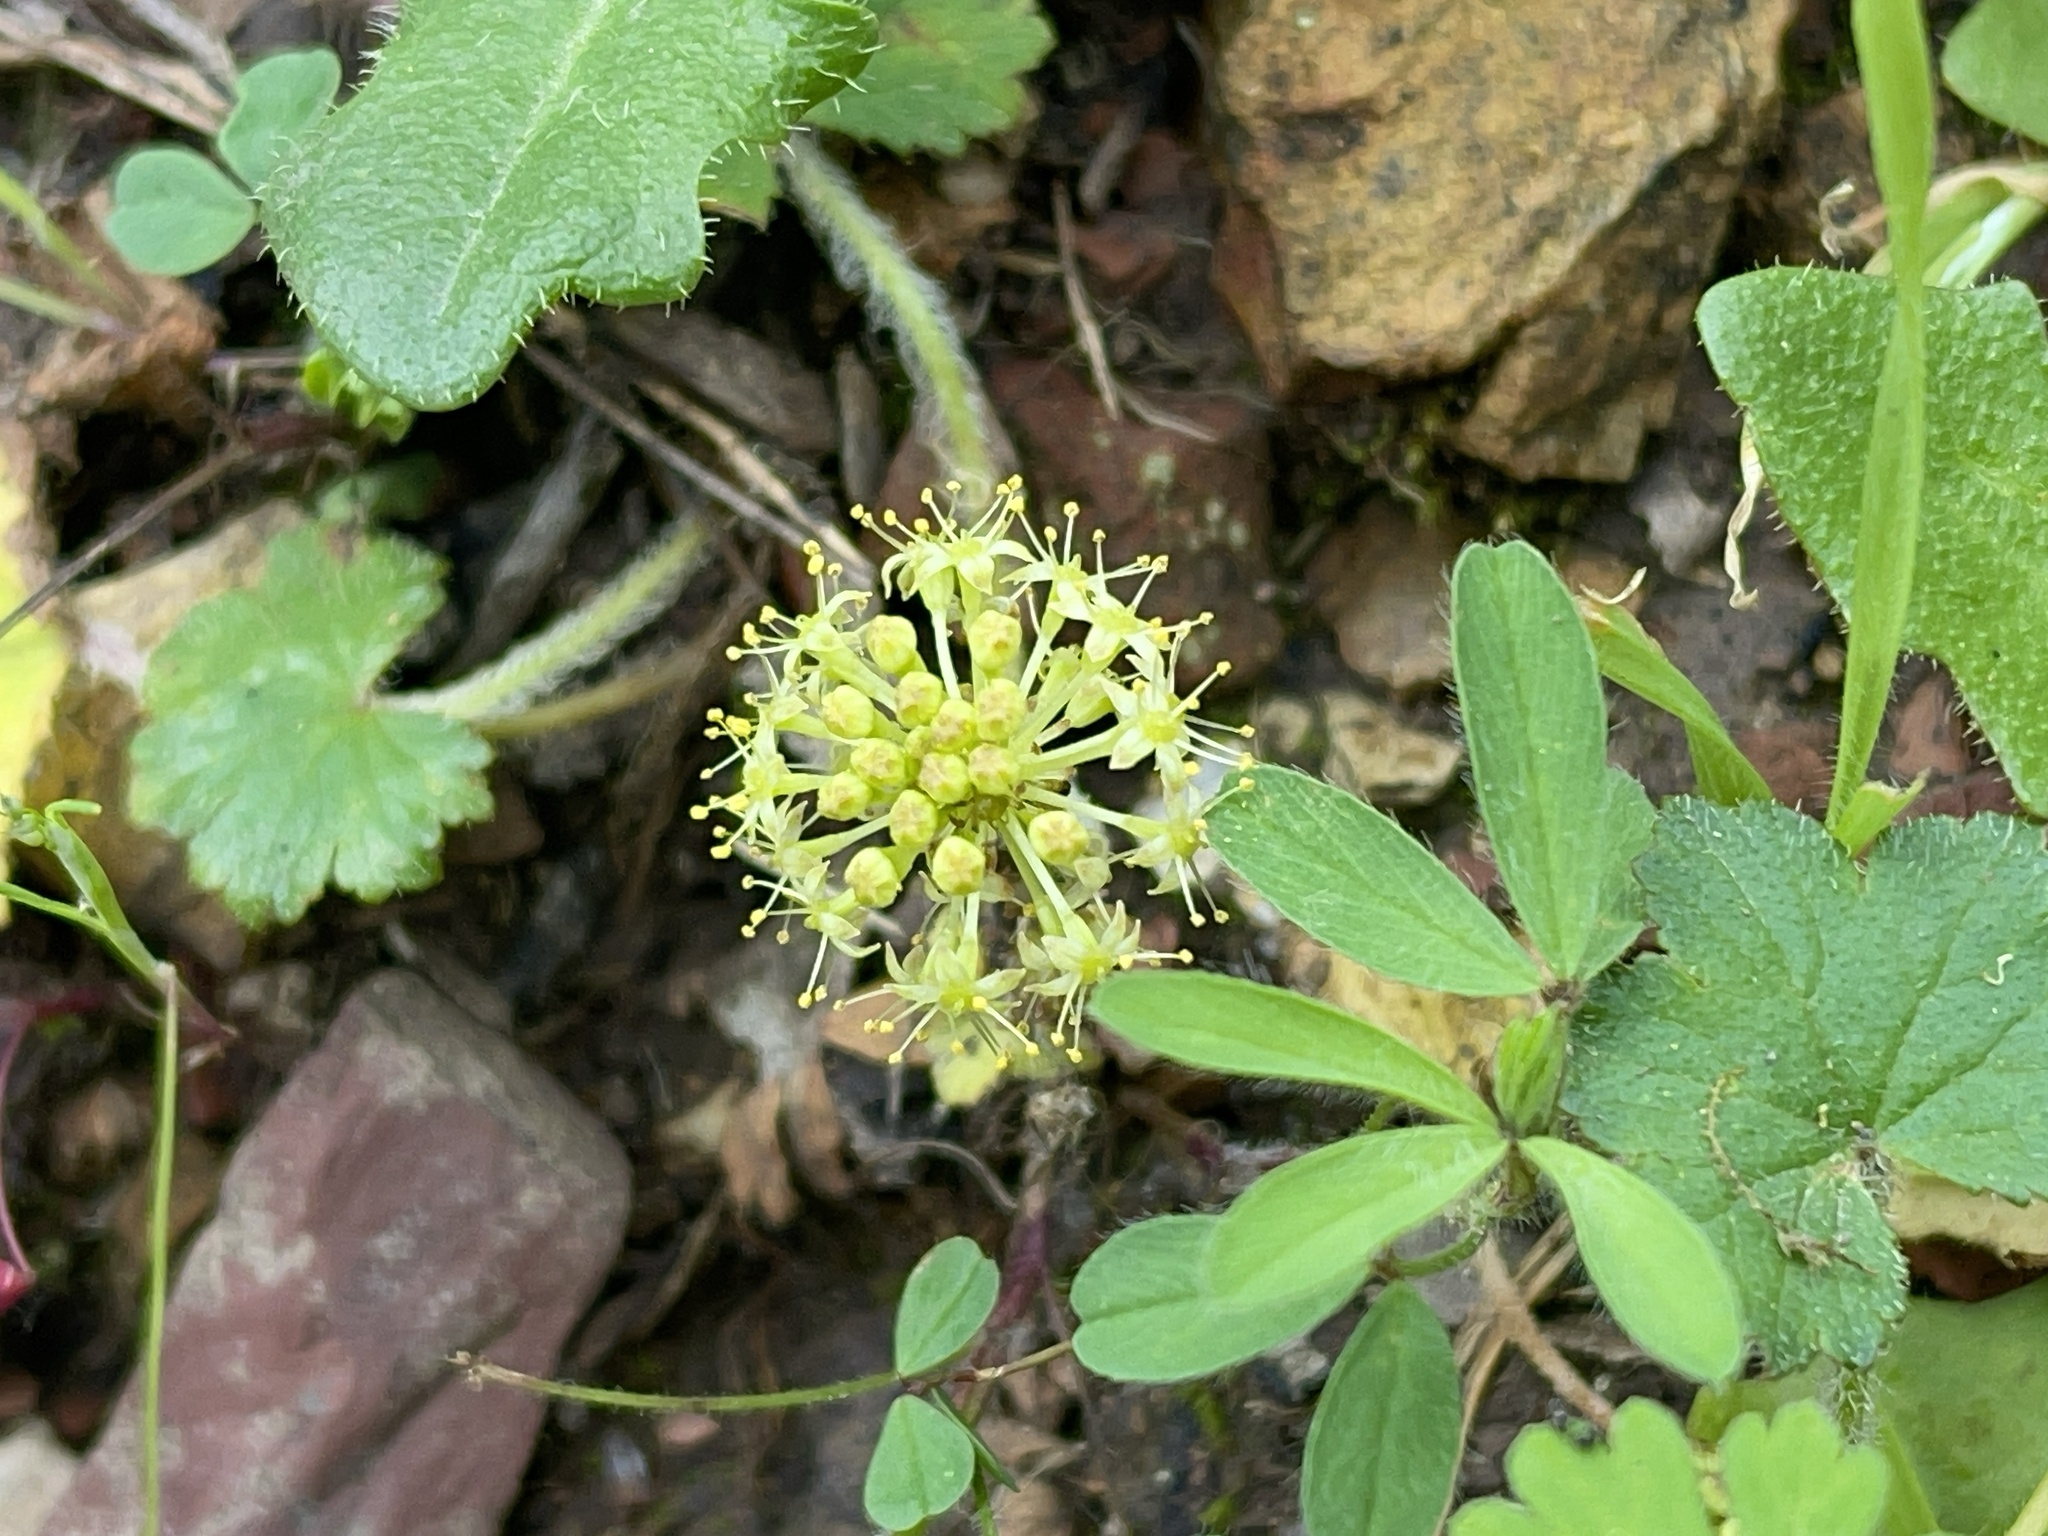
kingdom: Plantae
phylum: Tracheophyta
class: Magnoliopsida
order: Apiales
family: Araliaceae
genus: Hydrocotyle
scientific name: Hydrocotyle laxiflora
